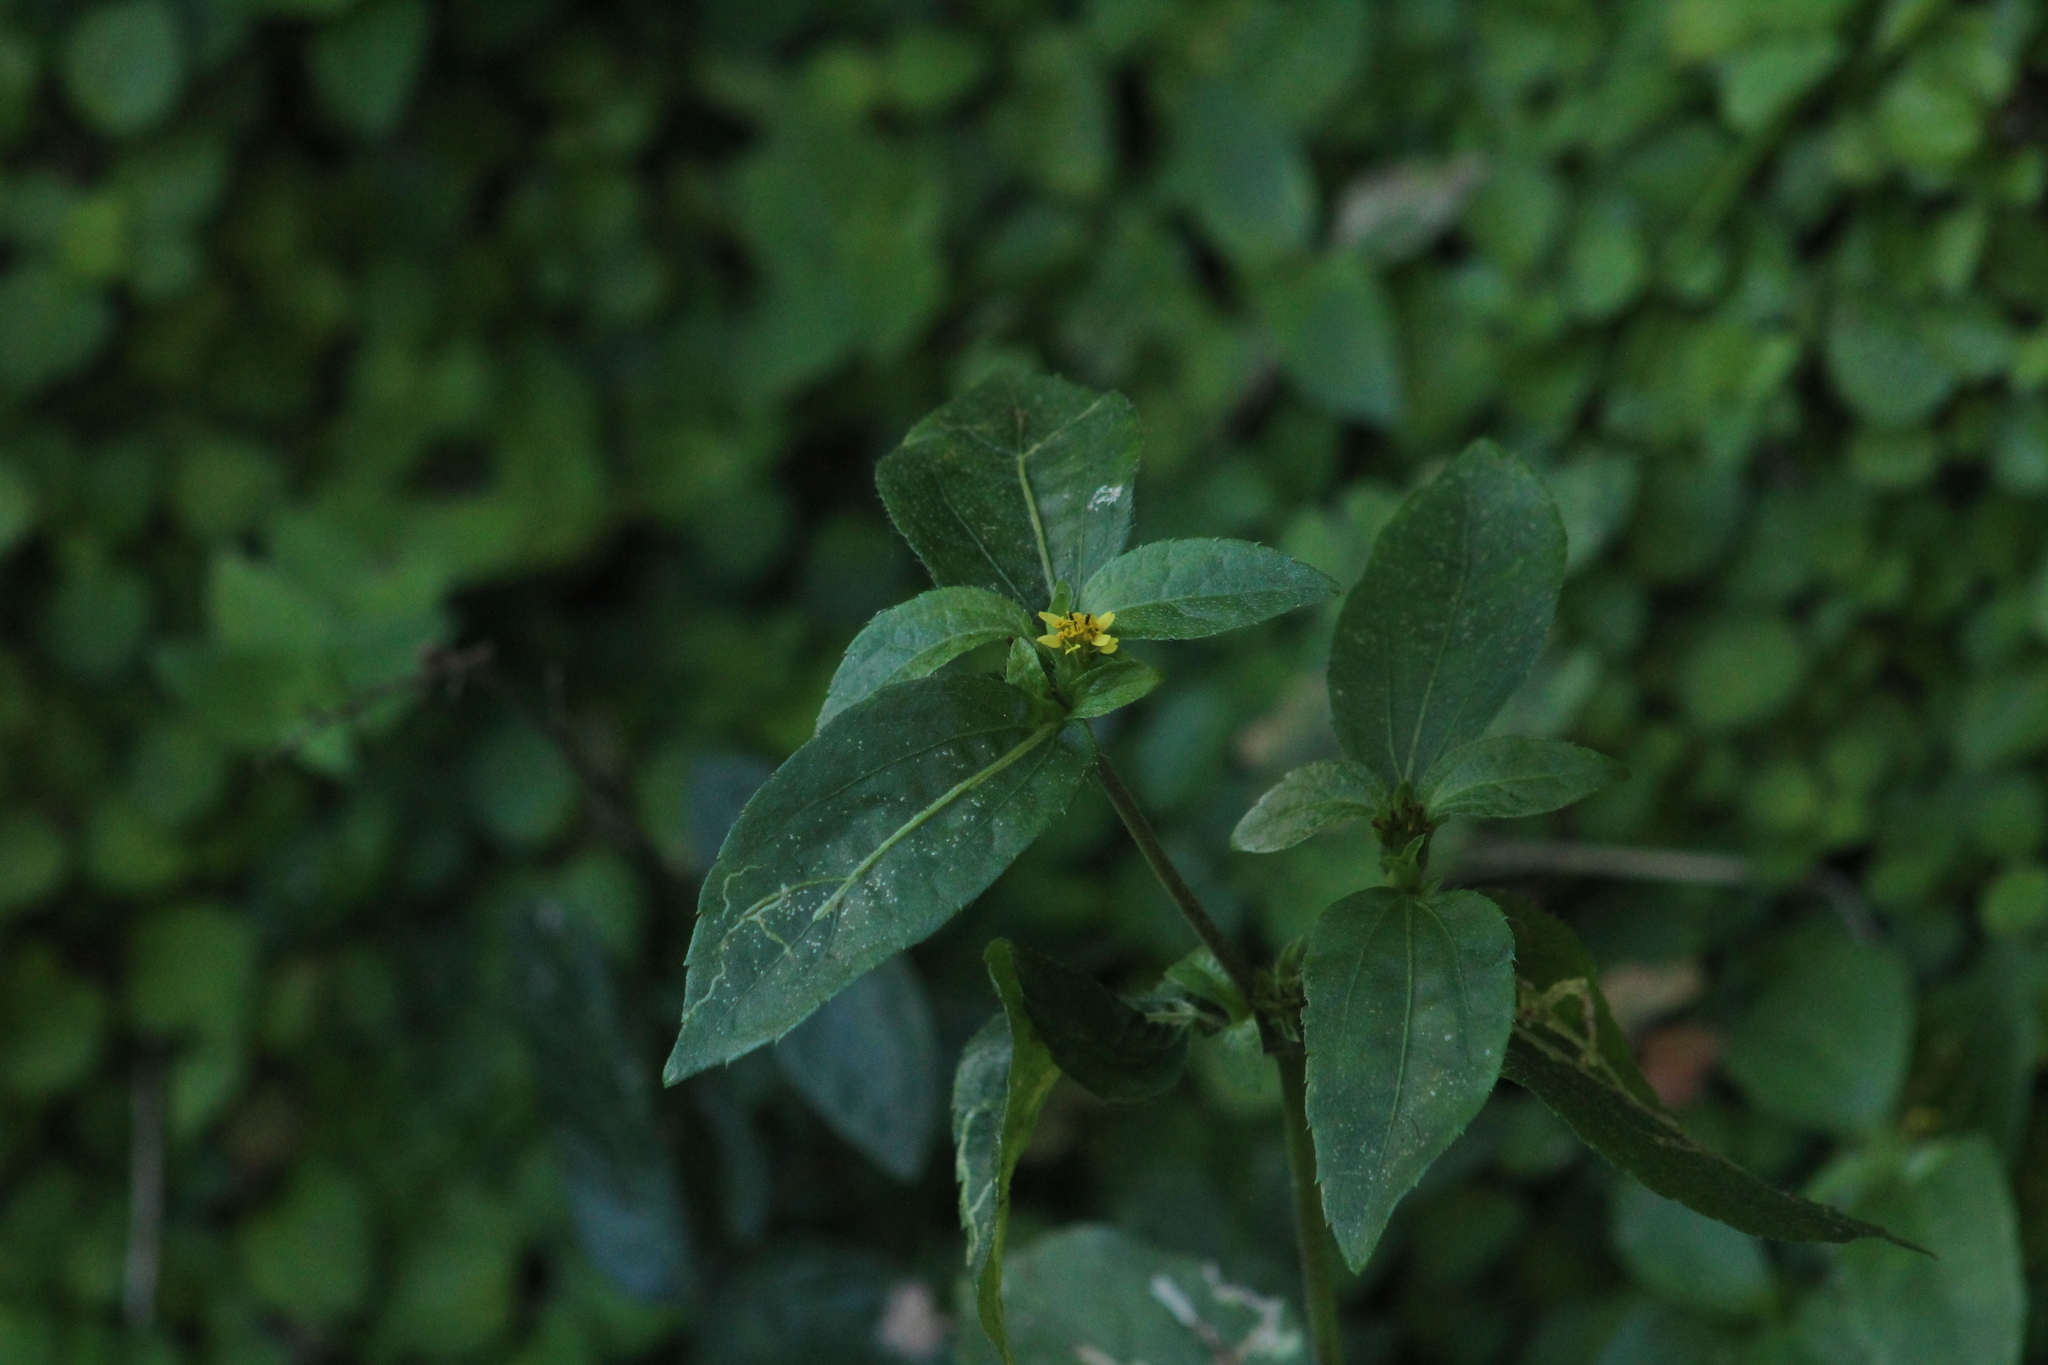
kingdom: Plantae
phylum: Tracheophyta
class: Magnoliopsida
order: Asterales
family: Asteraceae
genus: Synedrella
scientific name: Synedrella nodiflora
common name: Nodeweed
